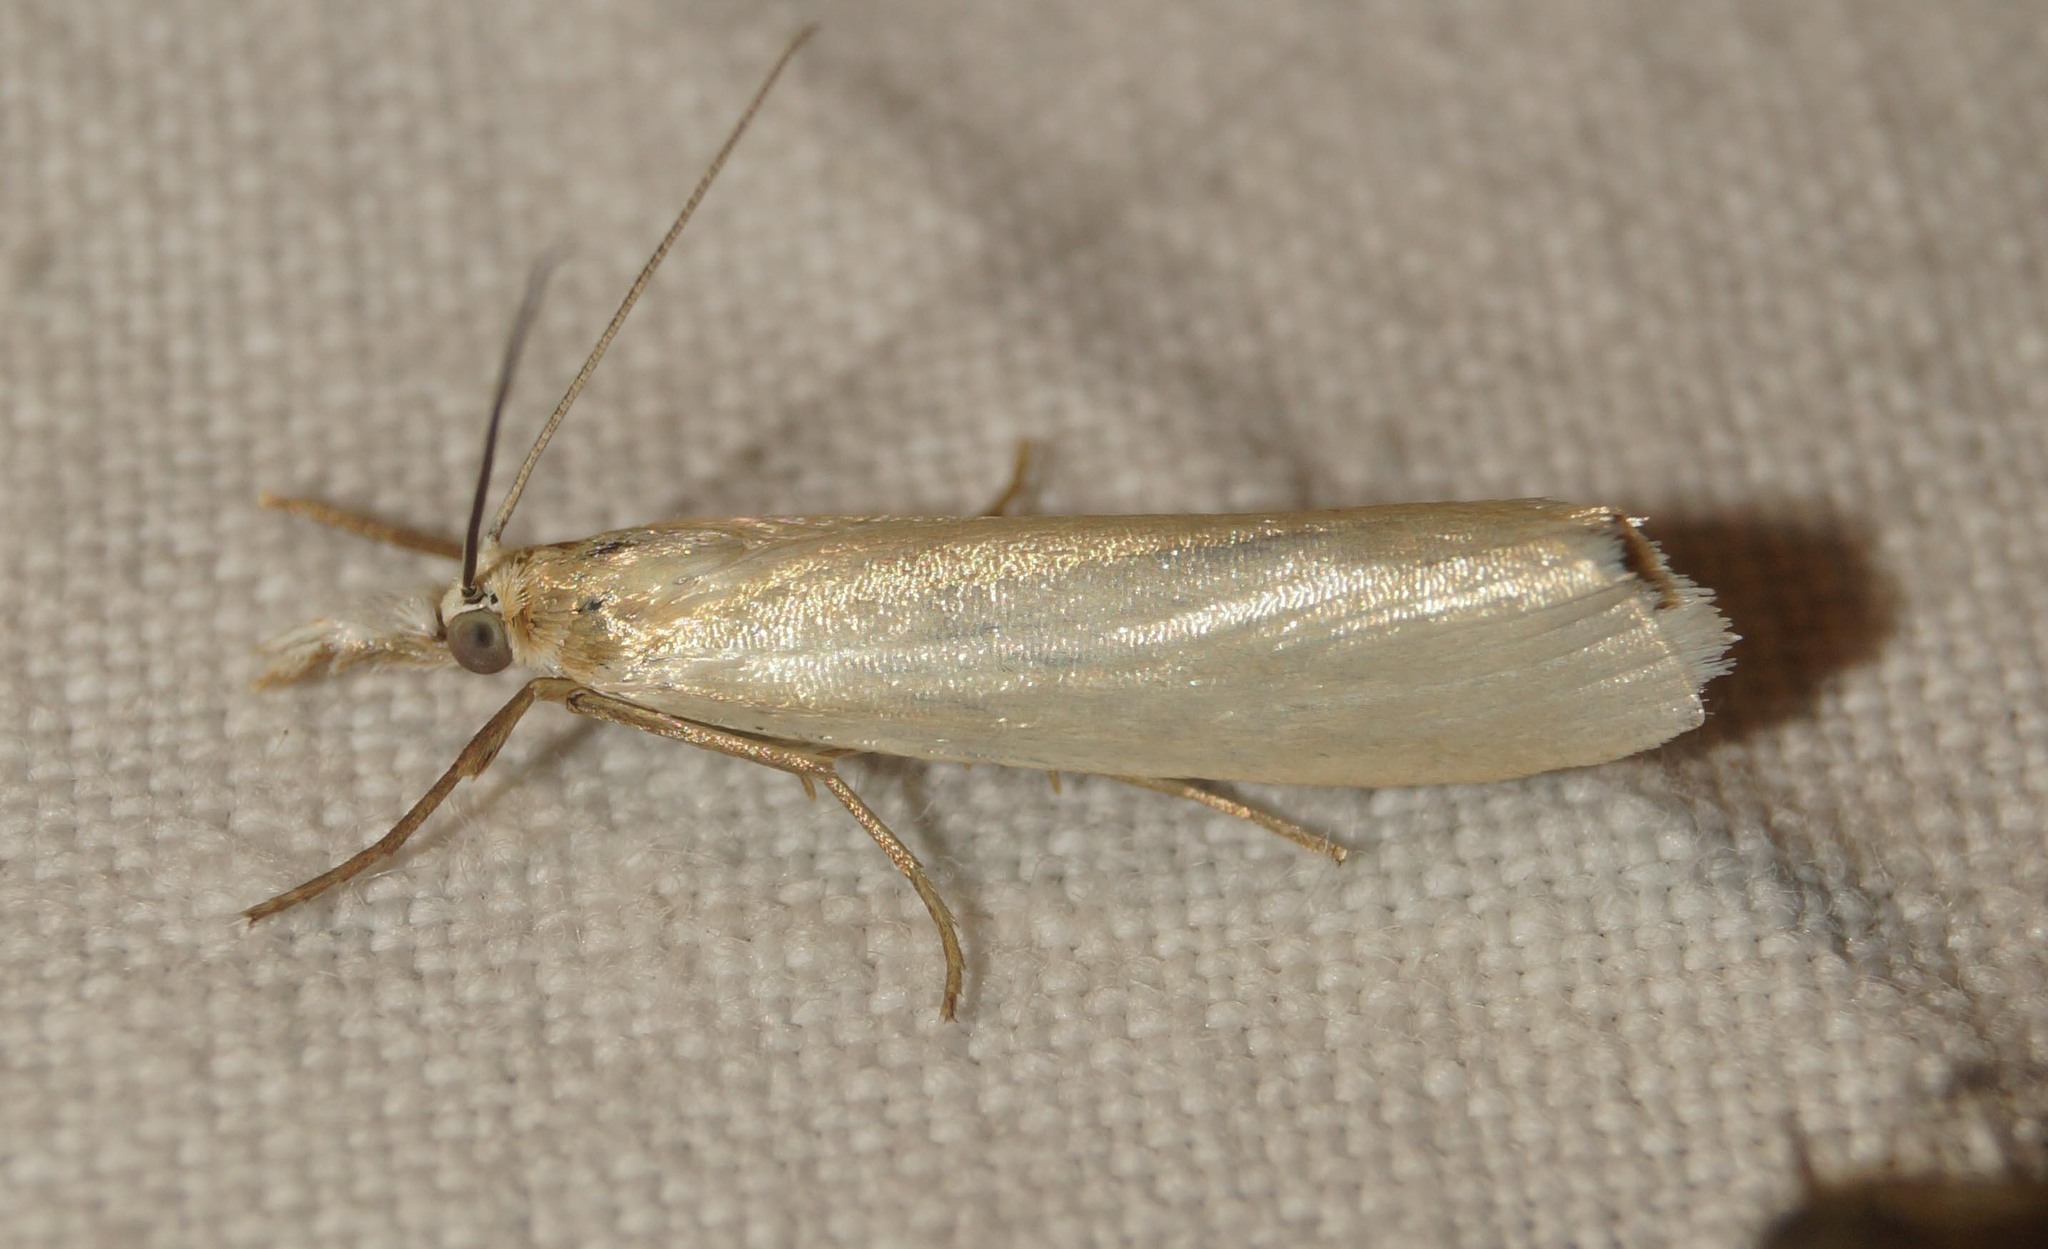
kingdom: Animalia
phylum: Arthropoda
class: Insecta
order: Lepidoptera
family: Crambidae
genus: Crambus
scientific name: Crambus perlellus
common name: Yellow satin veneer
